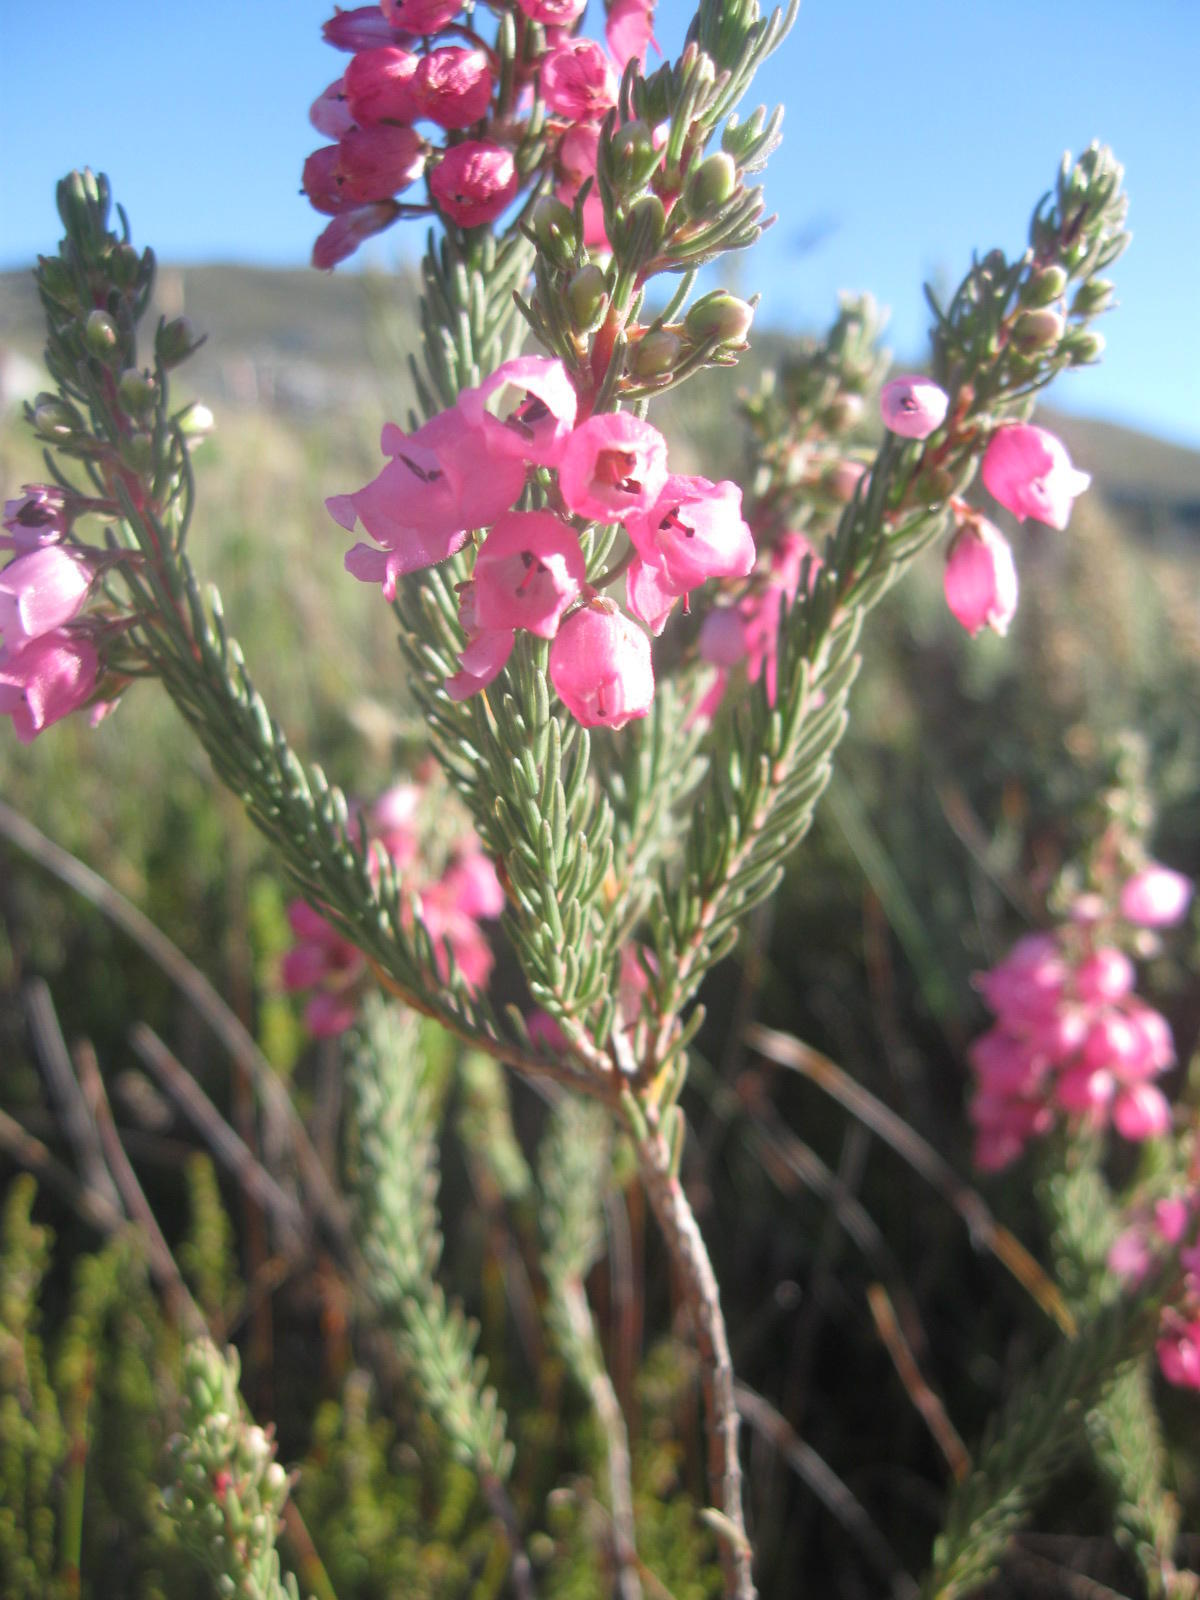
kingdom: Plantae
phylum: Tracheophyta
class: Magnoliopsida
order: Ericales
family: Ericaceae
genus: Erica
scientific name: Erica viscaria
